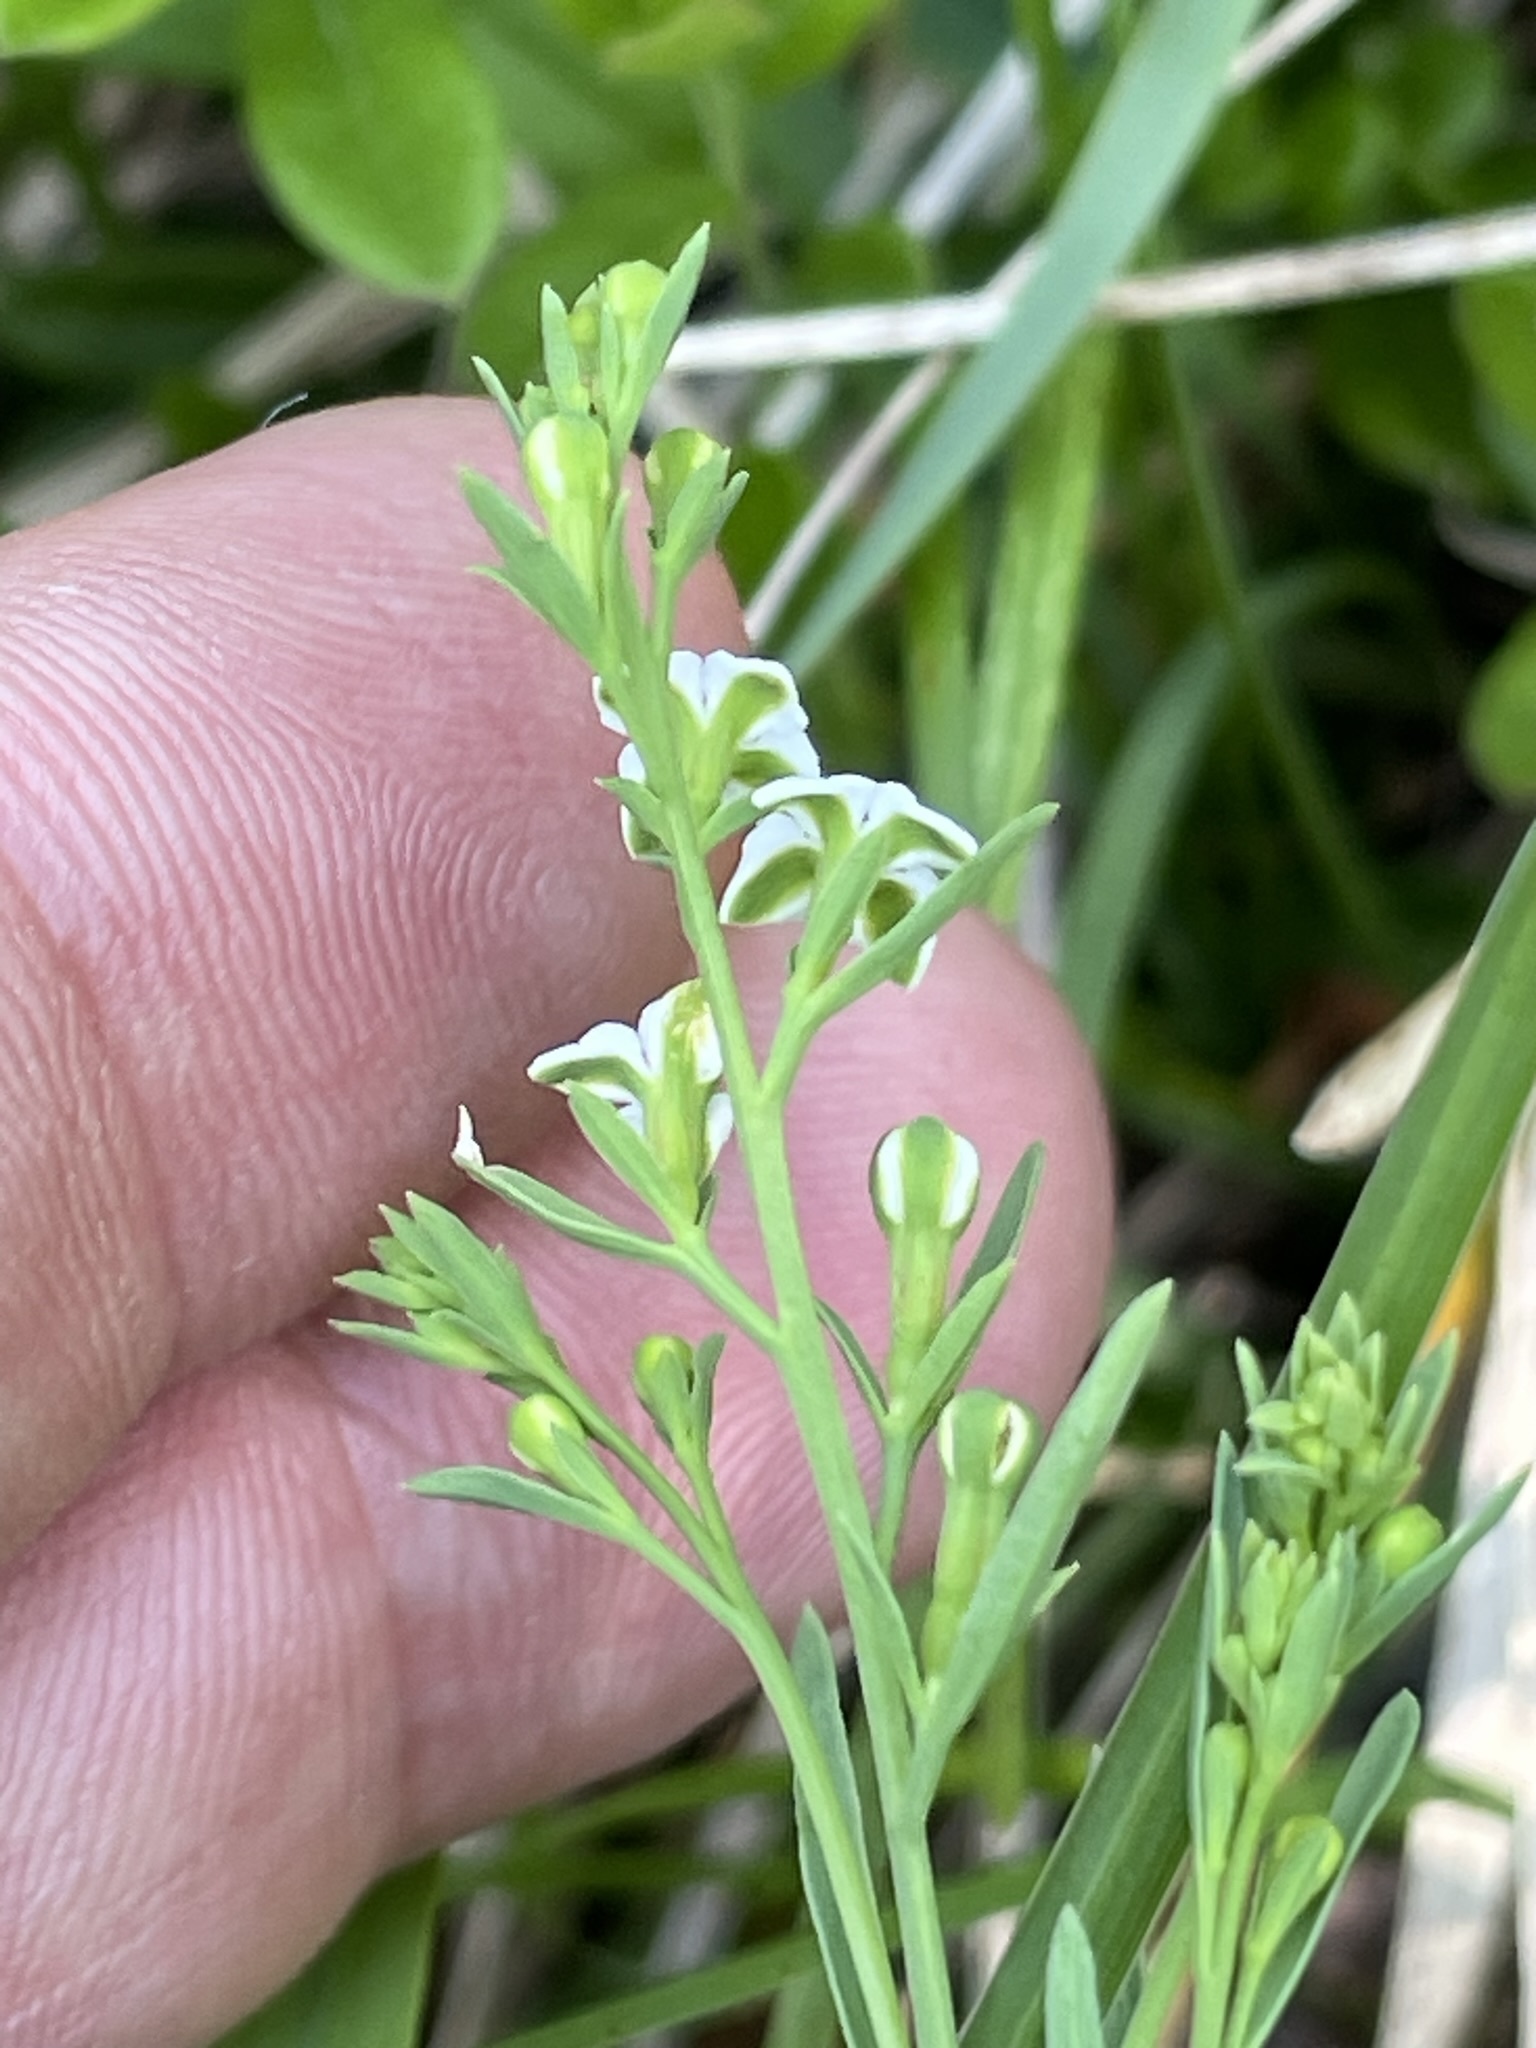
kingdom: Plantae
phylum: Tracheophyta
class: Magnoliopsida
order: Santalales
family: Thesiaceae
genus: Thesium
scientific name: Thesium alpinum
